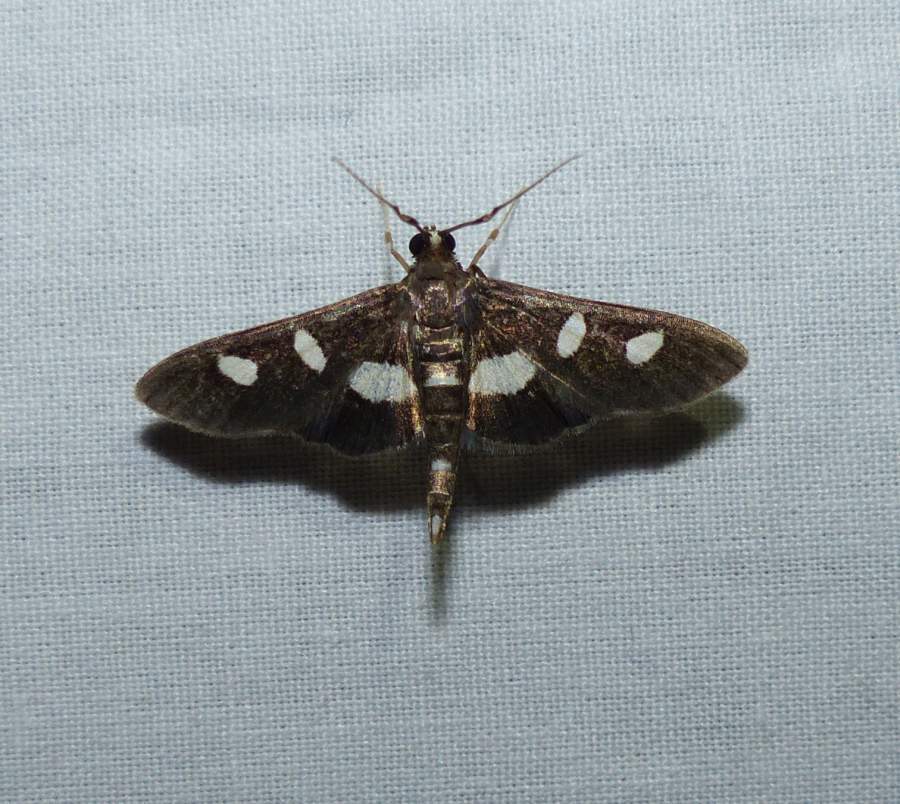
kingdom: Animalia
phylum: Arthropoda
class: Insecta
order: Lepidoptera
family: Crambidae
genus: Desmia
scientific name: Desmia
